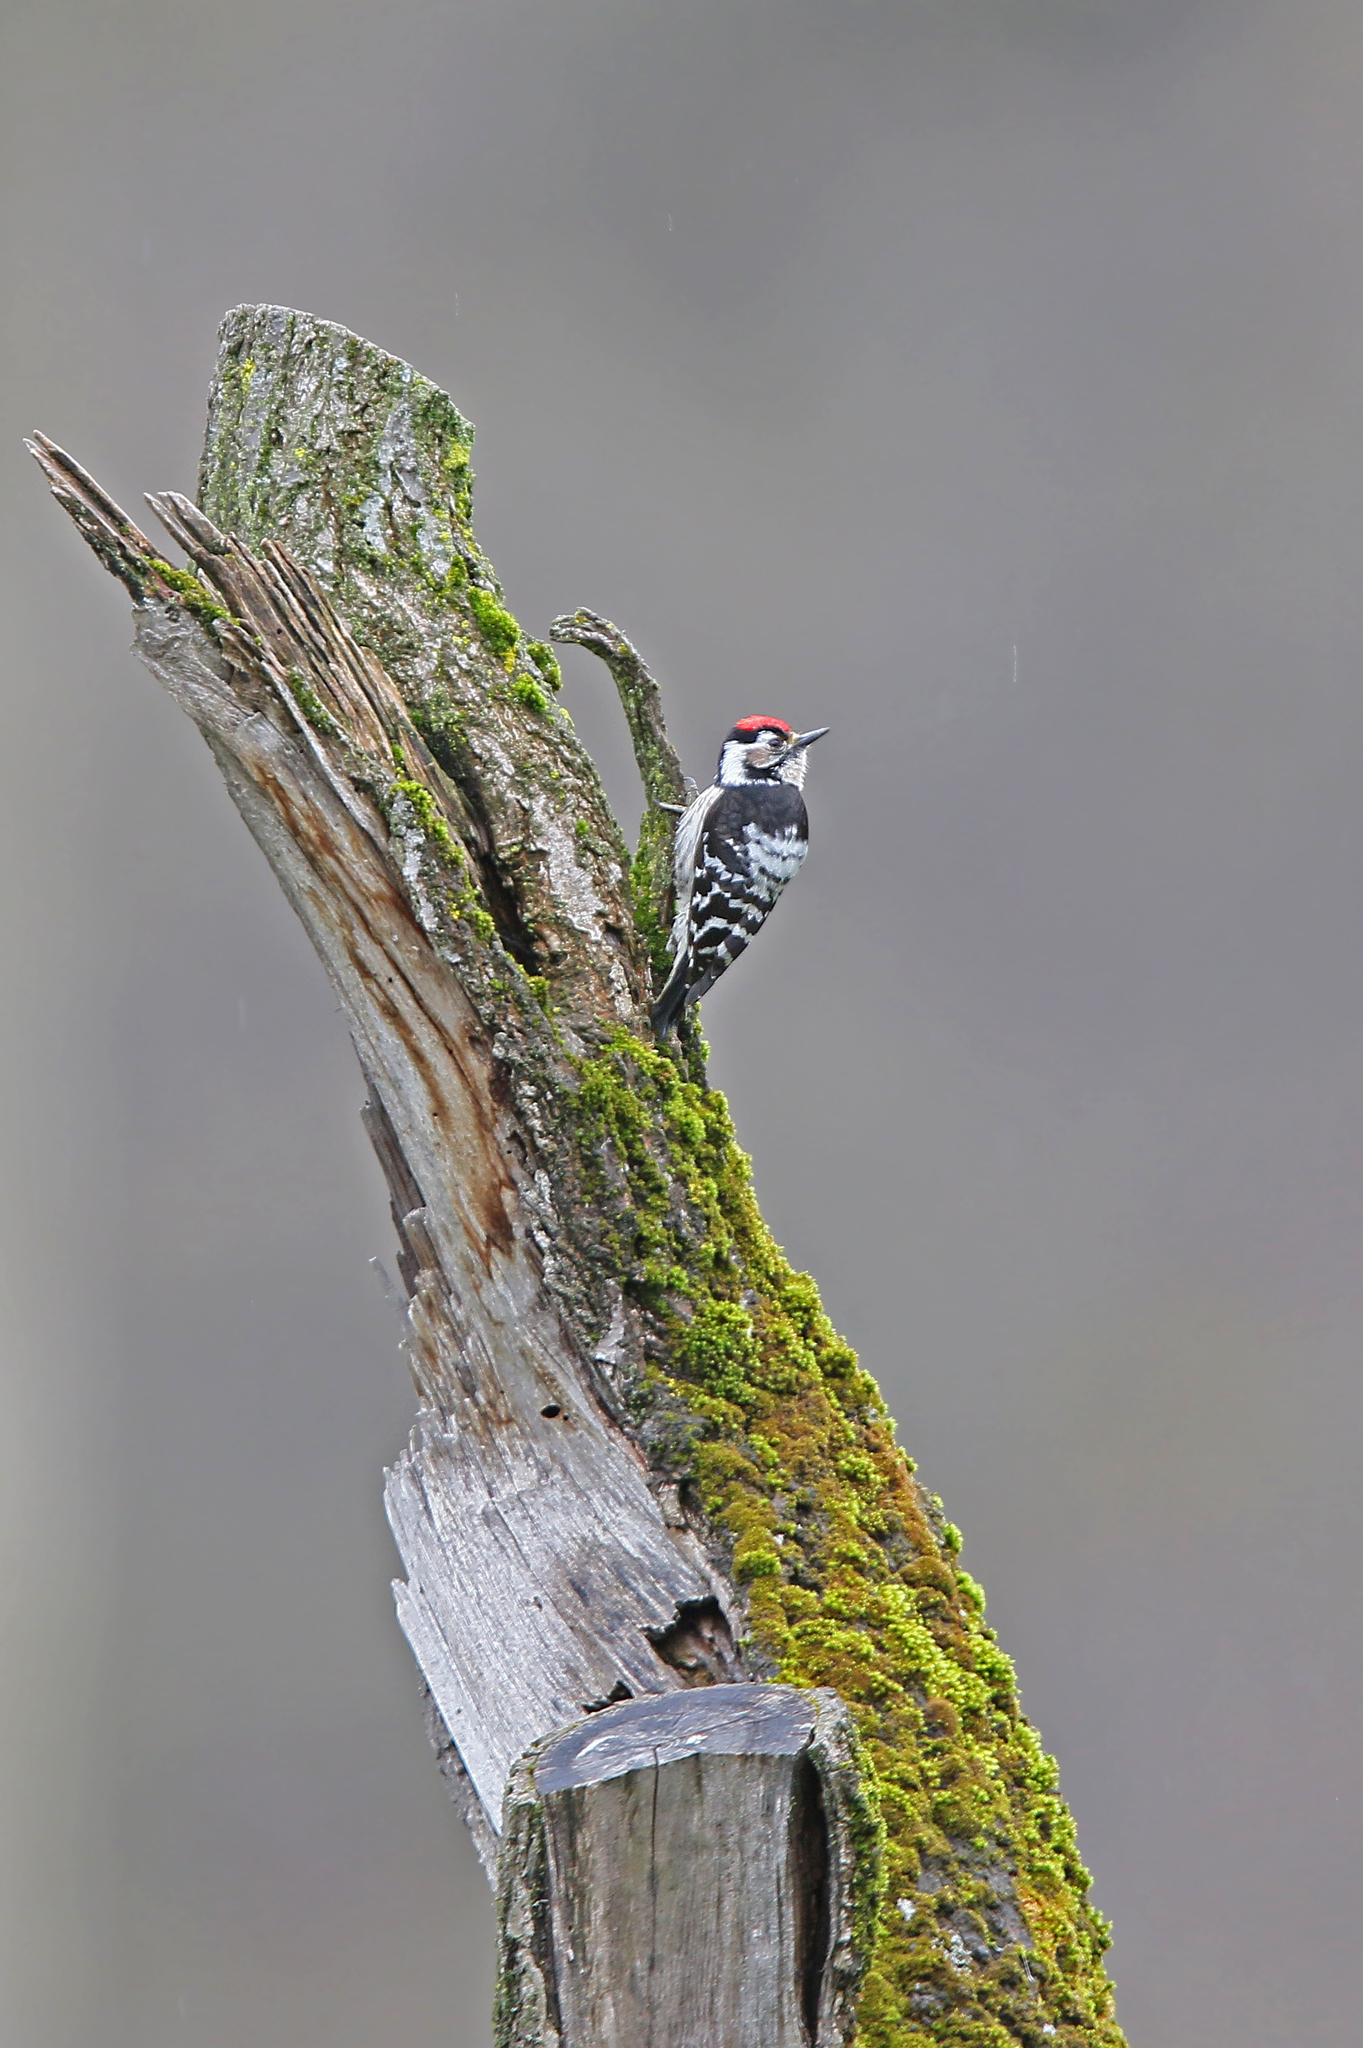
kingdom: Animalia
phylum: Chordata
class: Aves
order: Piciformes
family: Picidae
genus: Dryobates
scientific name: Dryobates minor
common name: Lesser spotted woodpecker
